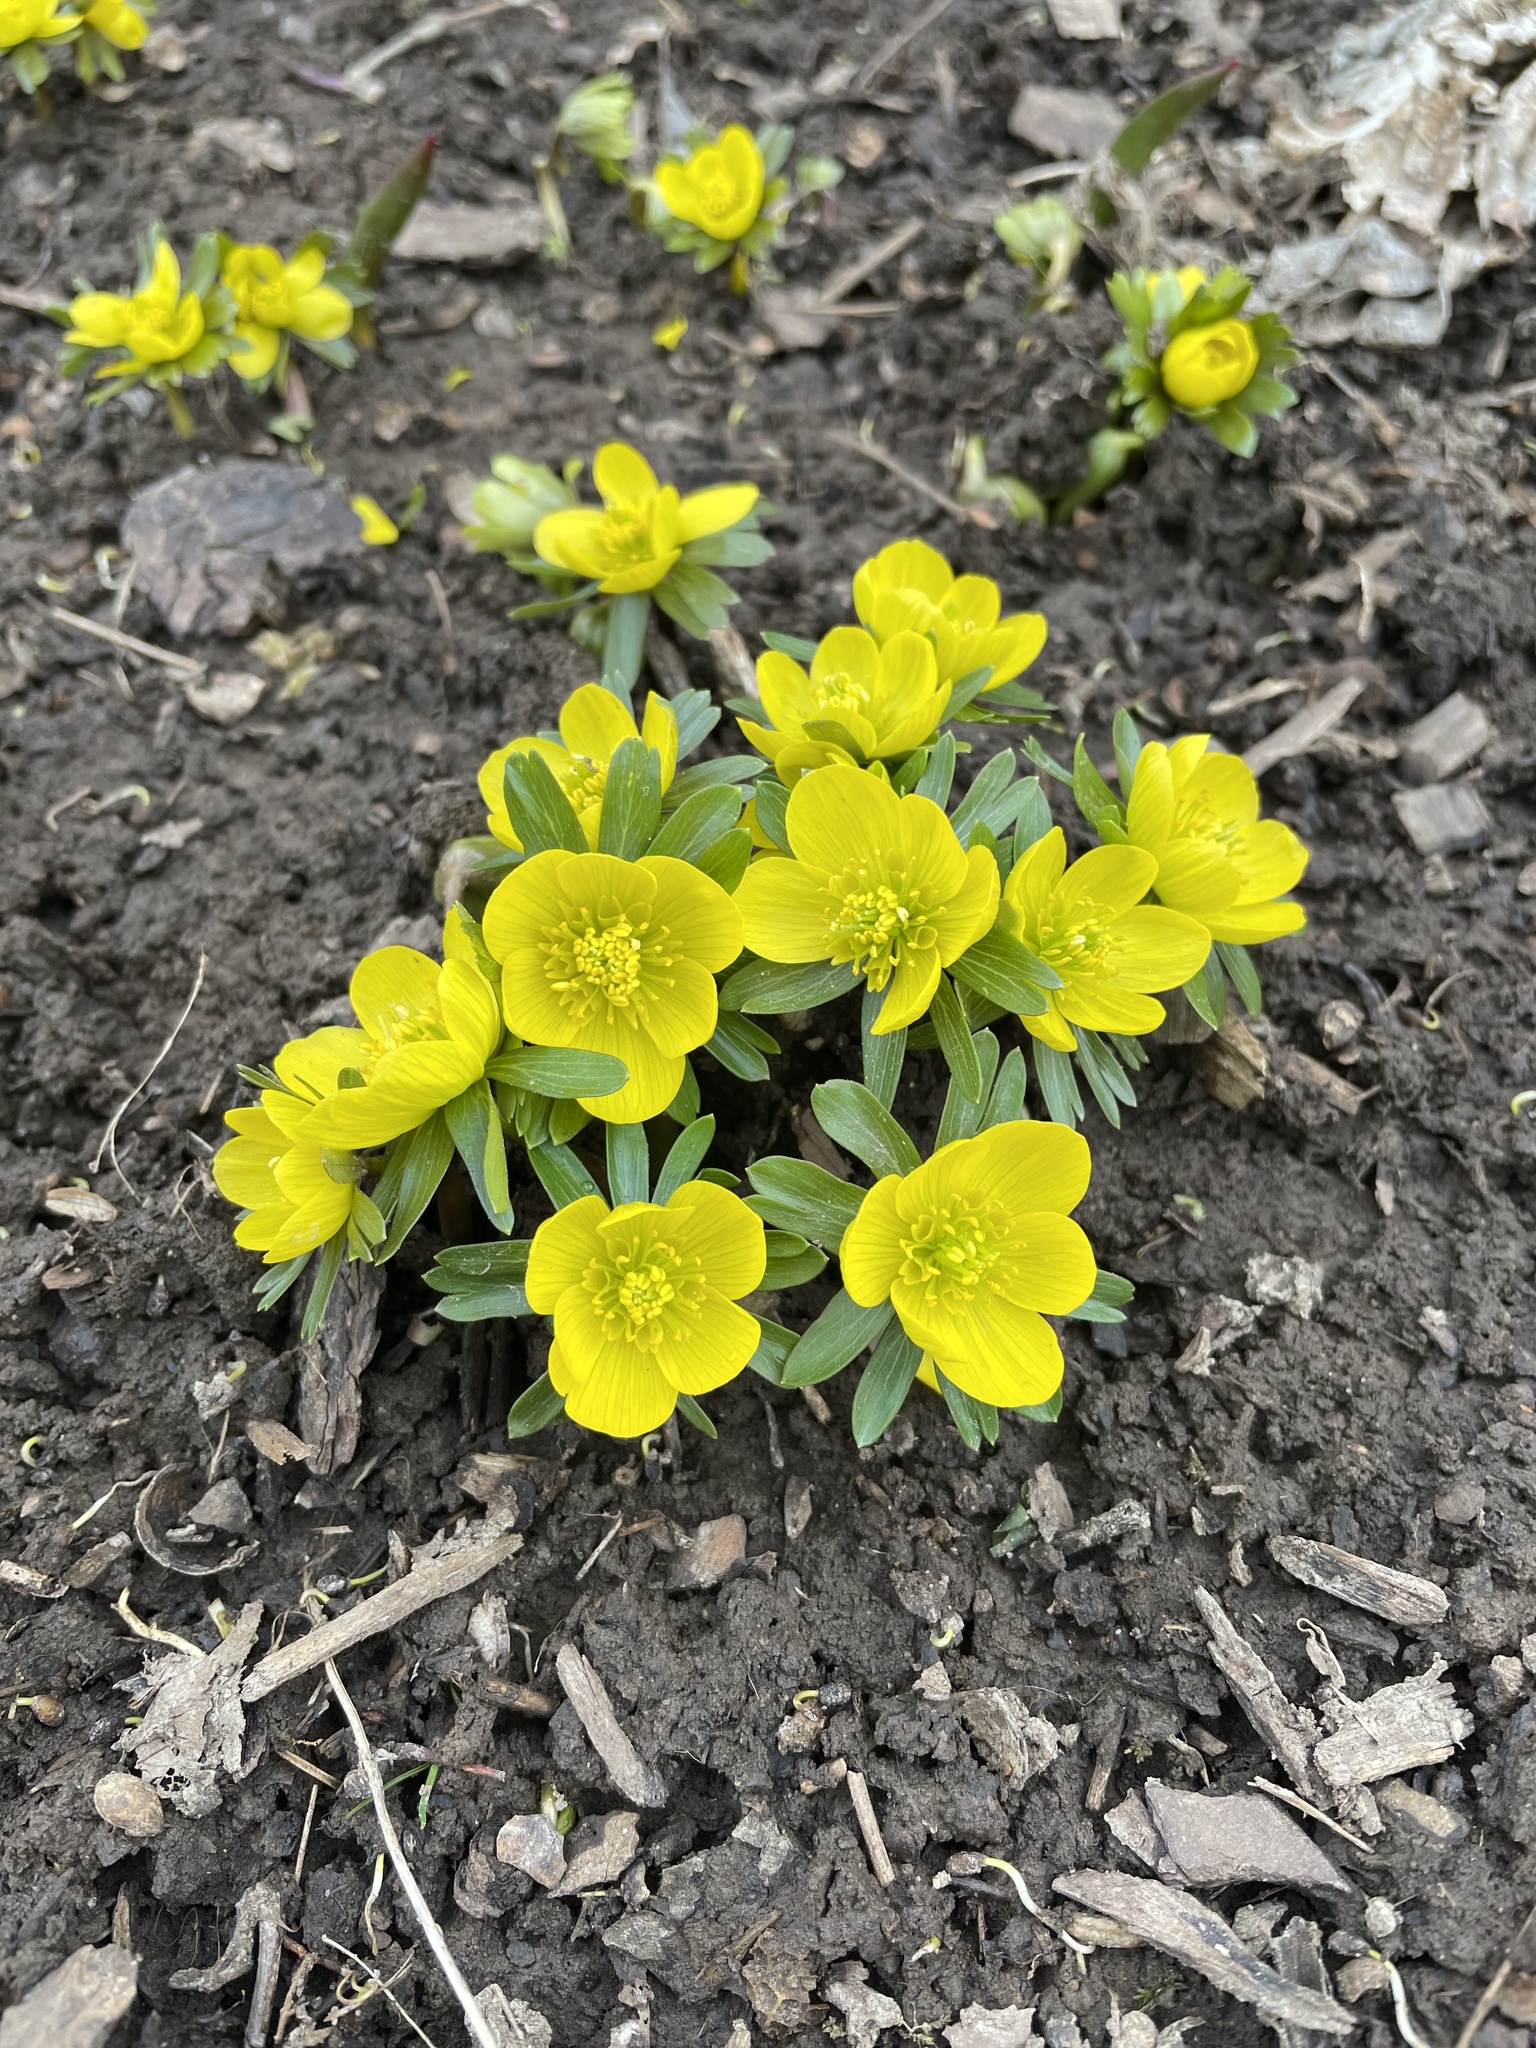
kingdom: Plantae
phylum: Tracheophyta
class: Magnoliopsida
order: Ranunculales
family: Ranunculaceae
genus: Eranthis
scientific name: Eranthis hyemalis
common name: Winter aconite
